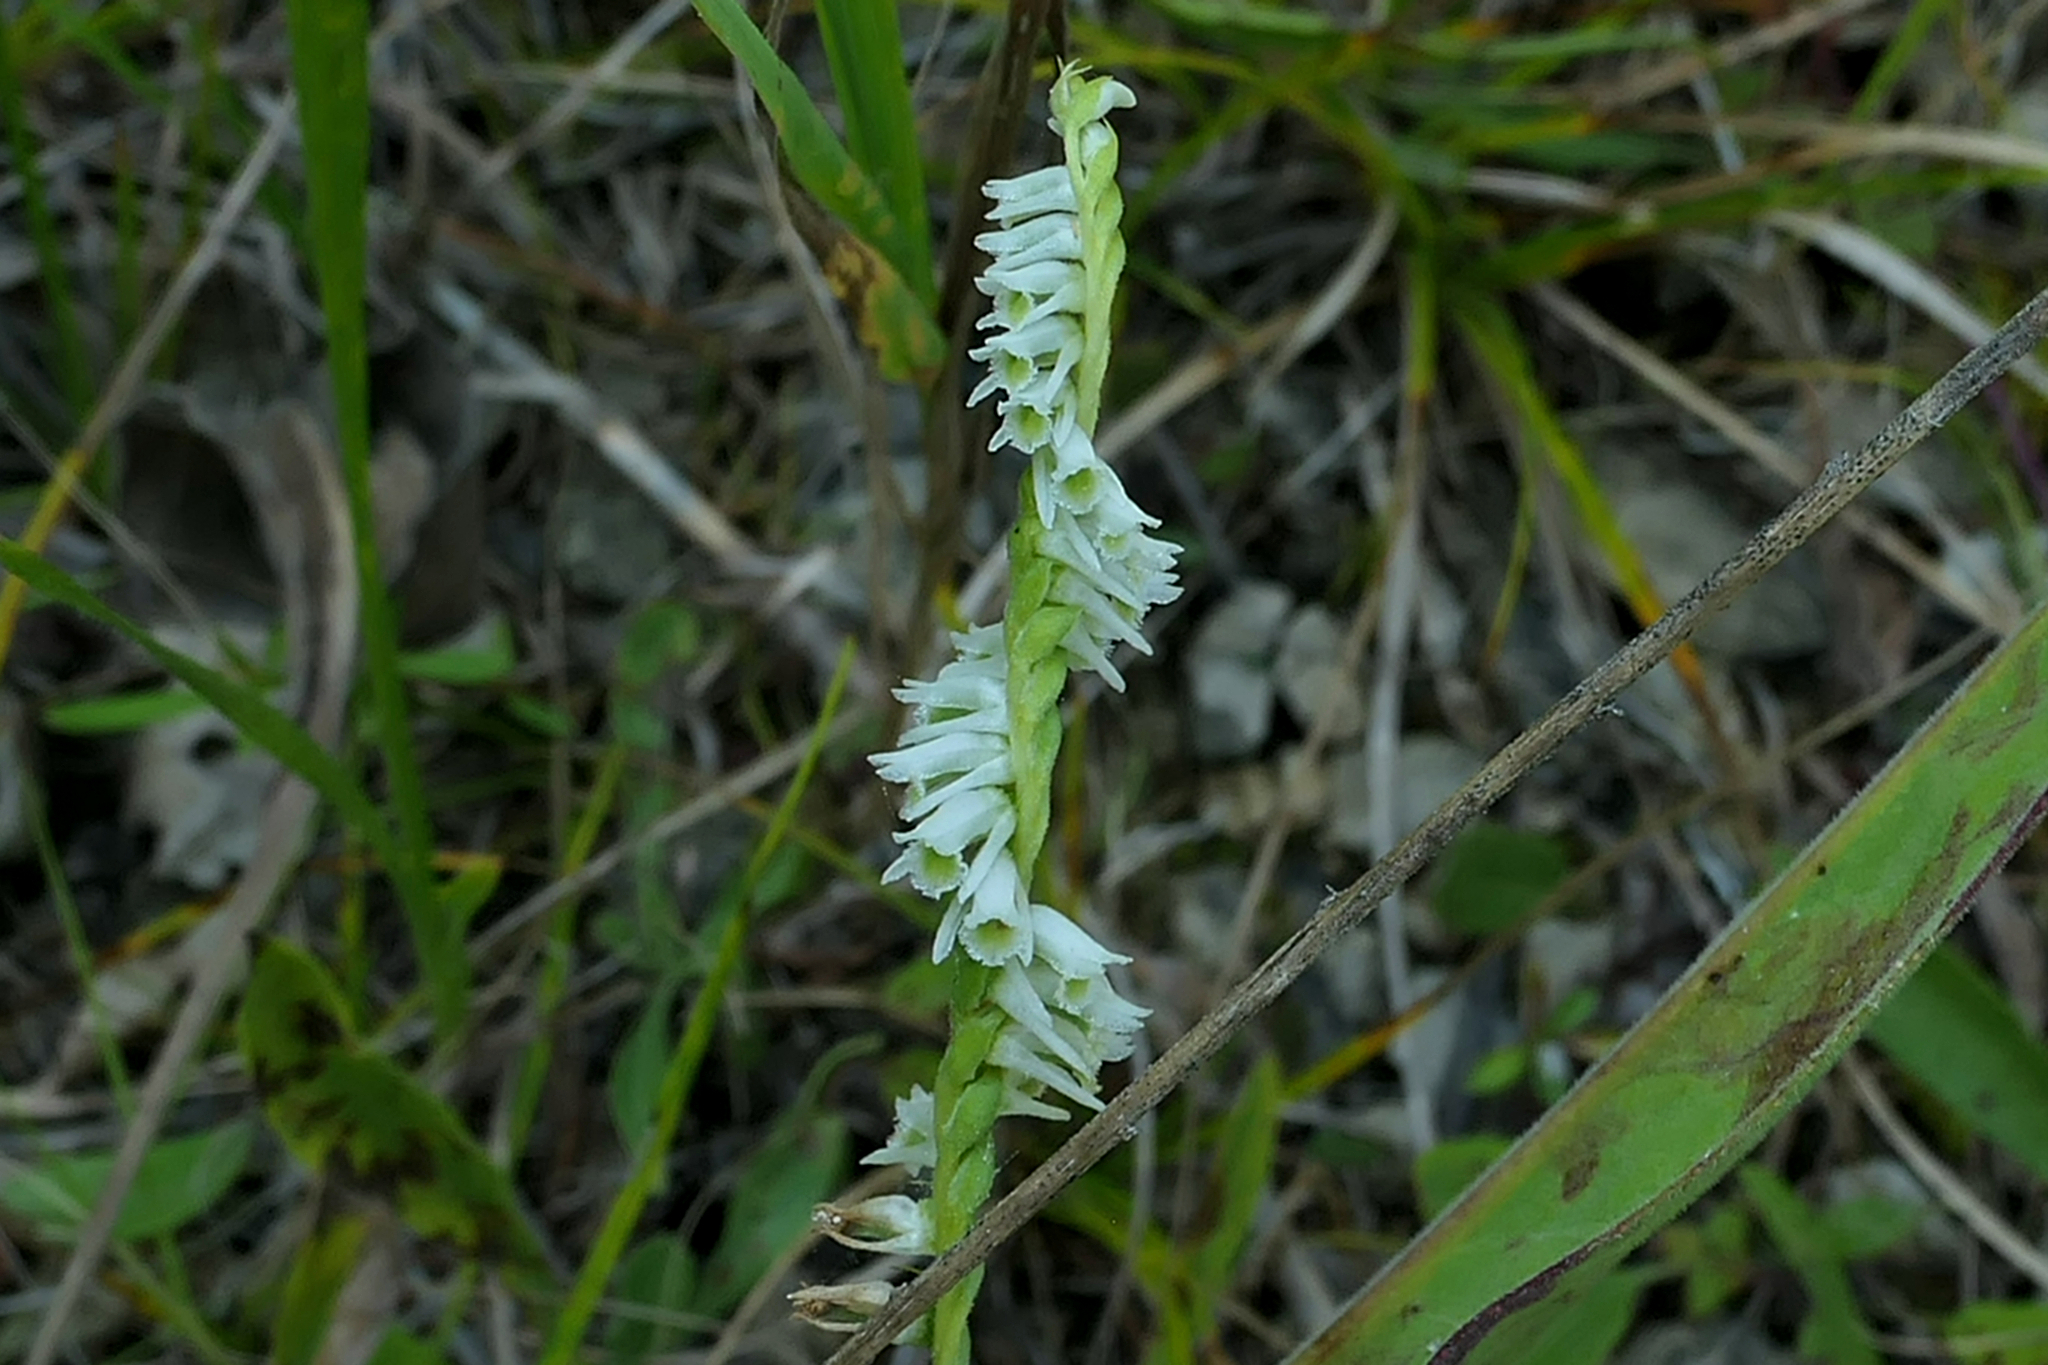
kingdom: Plantae
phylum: Tracheophyta
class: Liliopsida
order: Asparagales
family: Orchidaceae
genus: Spiranthes
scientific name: Spiranthes lacera
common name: Northern slender ladies'-tresses
